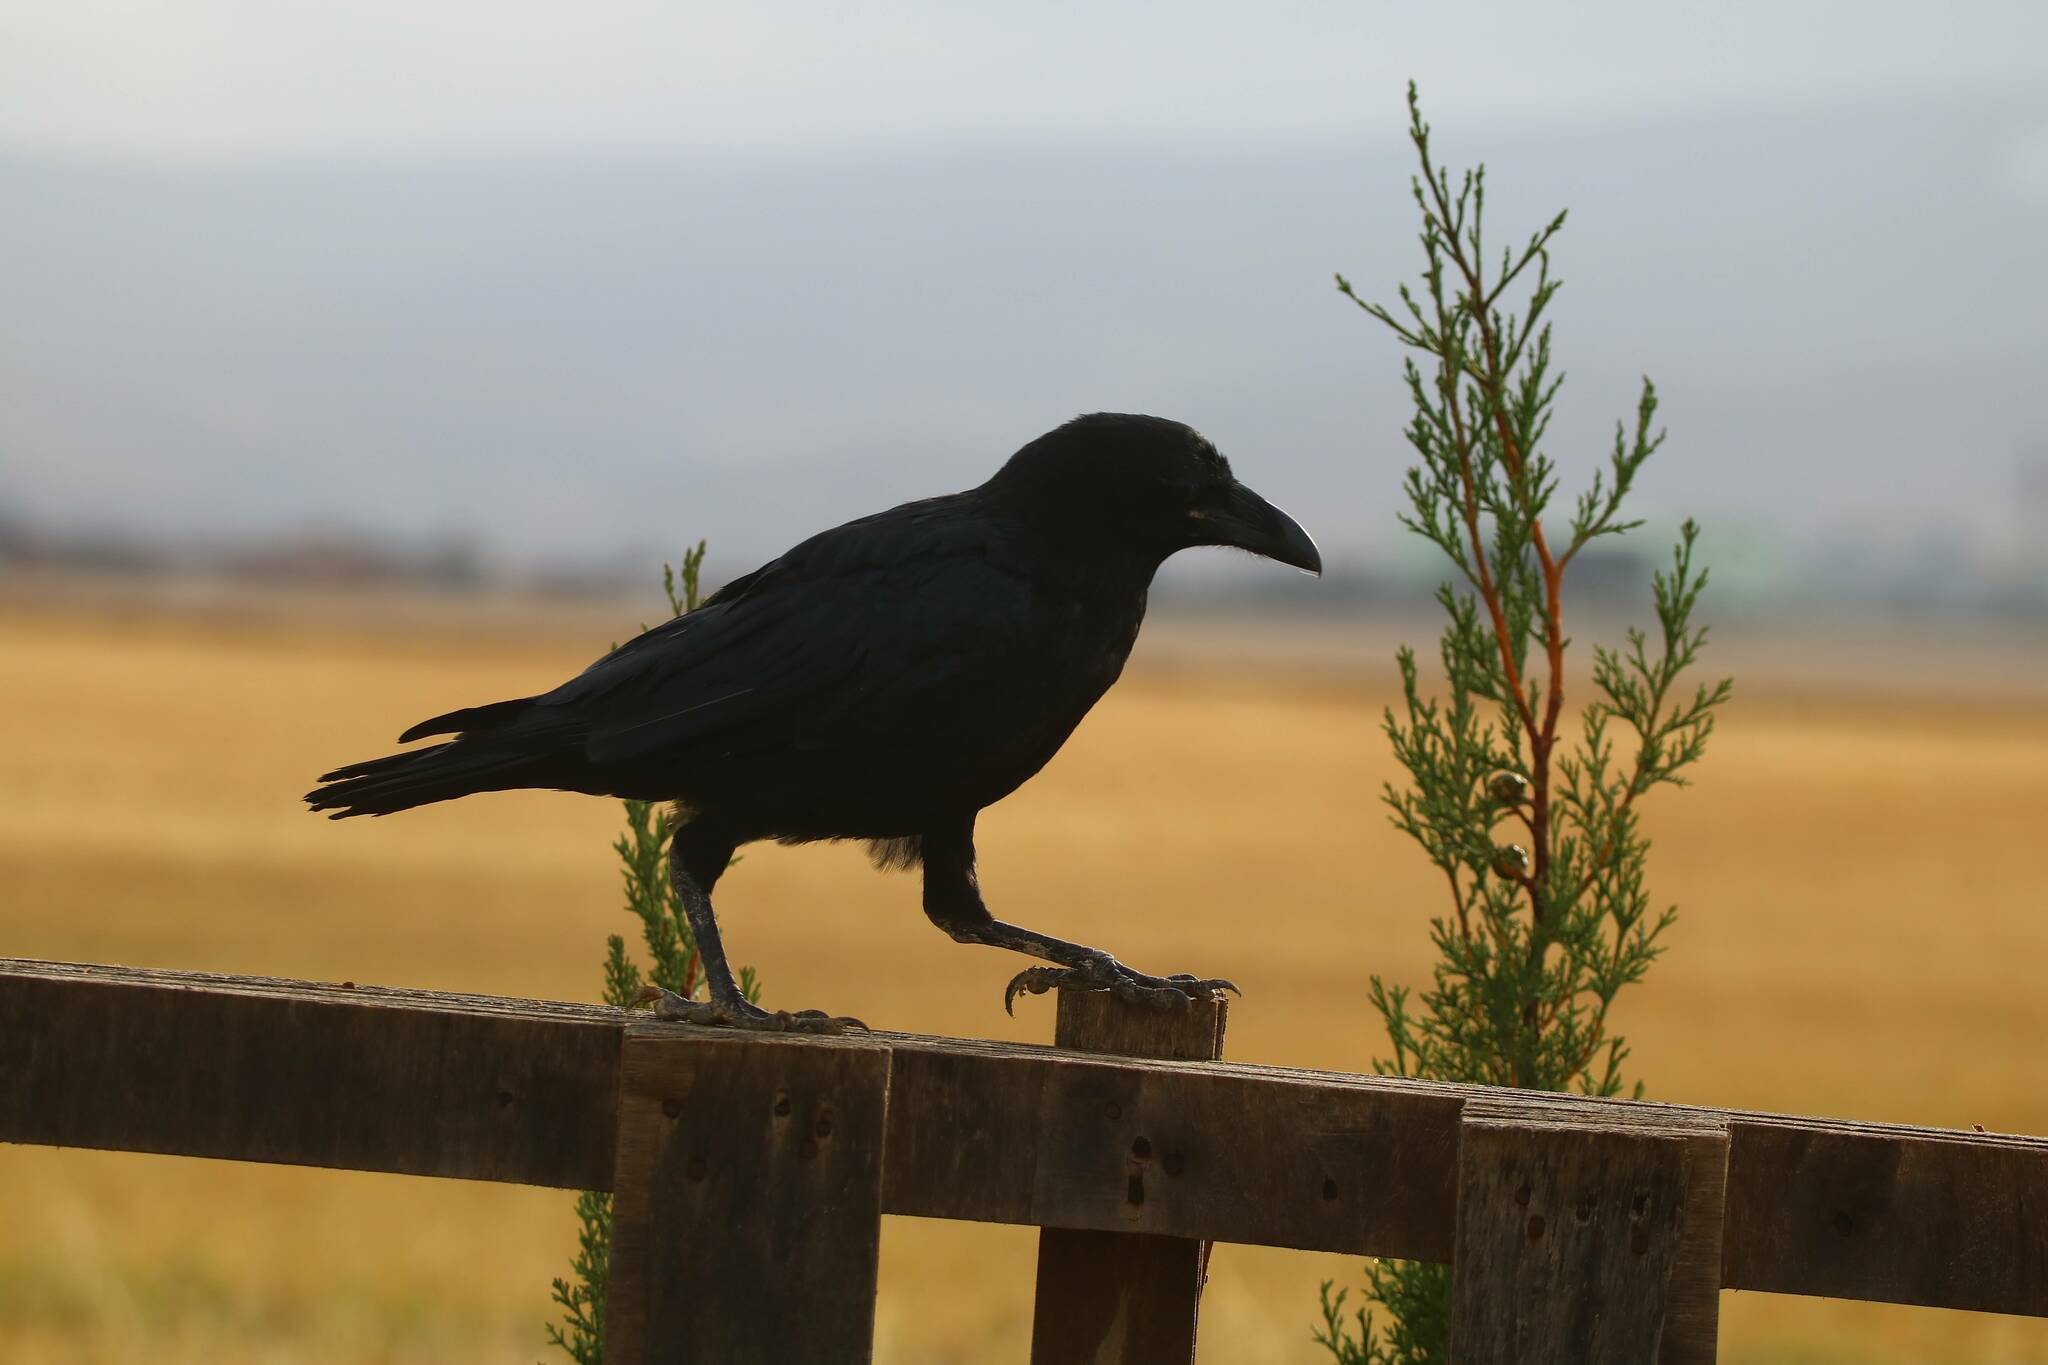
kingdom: Animalia
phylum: Chordata
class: Aves
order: Passeriformes
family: Corvidae
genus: Corvus
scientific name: Corvus corax
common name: Common raven
